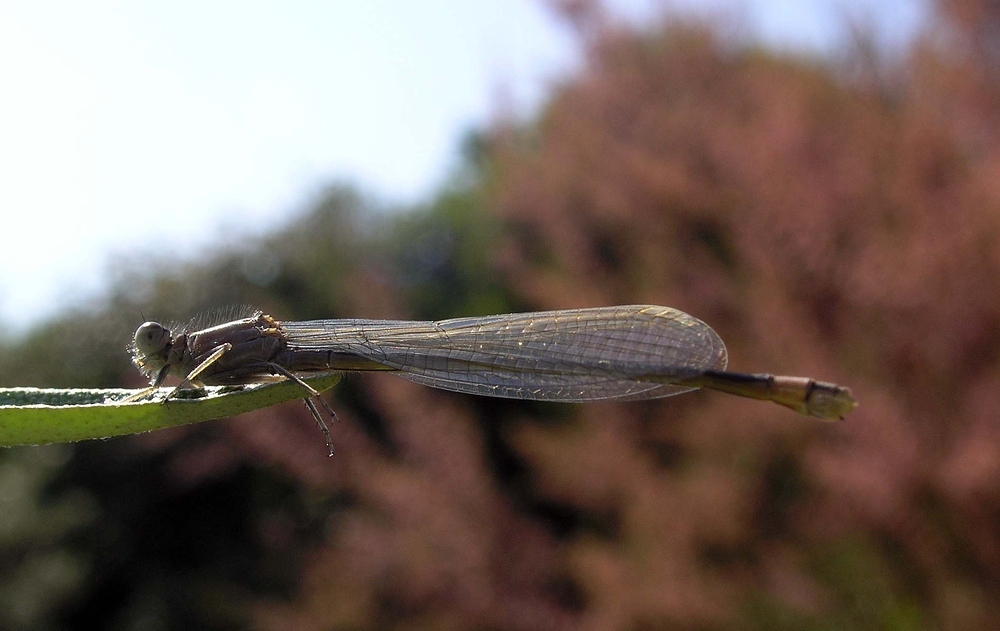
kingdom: Animalia
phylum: Arthropoda
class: Insecta
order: Odonata
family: Coenagrionidae
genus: Ischnura
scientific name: Ischnura elegans
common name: Blue-tailed damselfly
